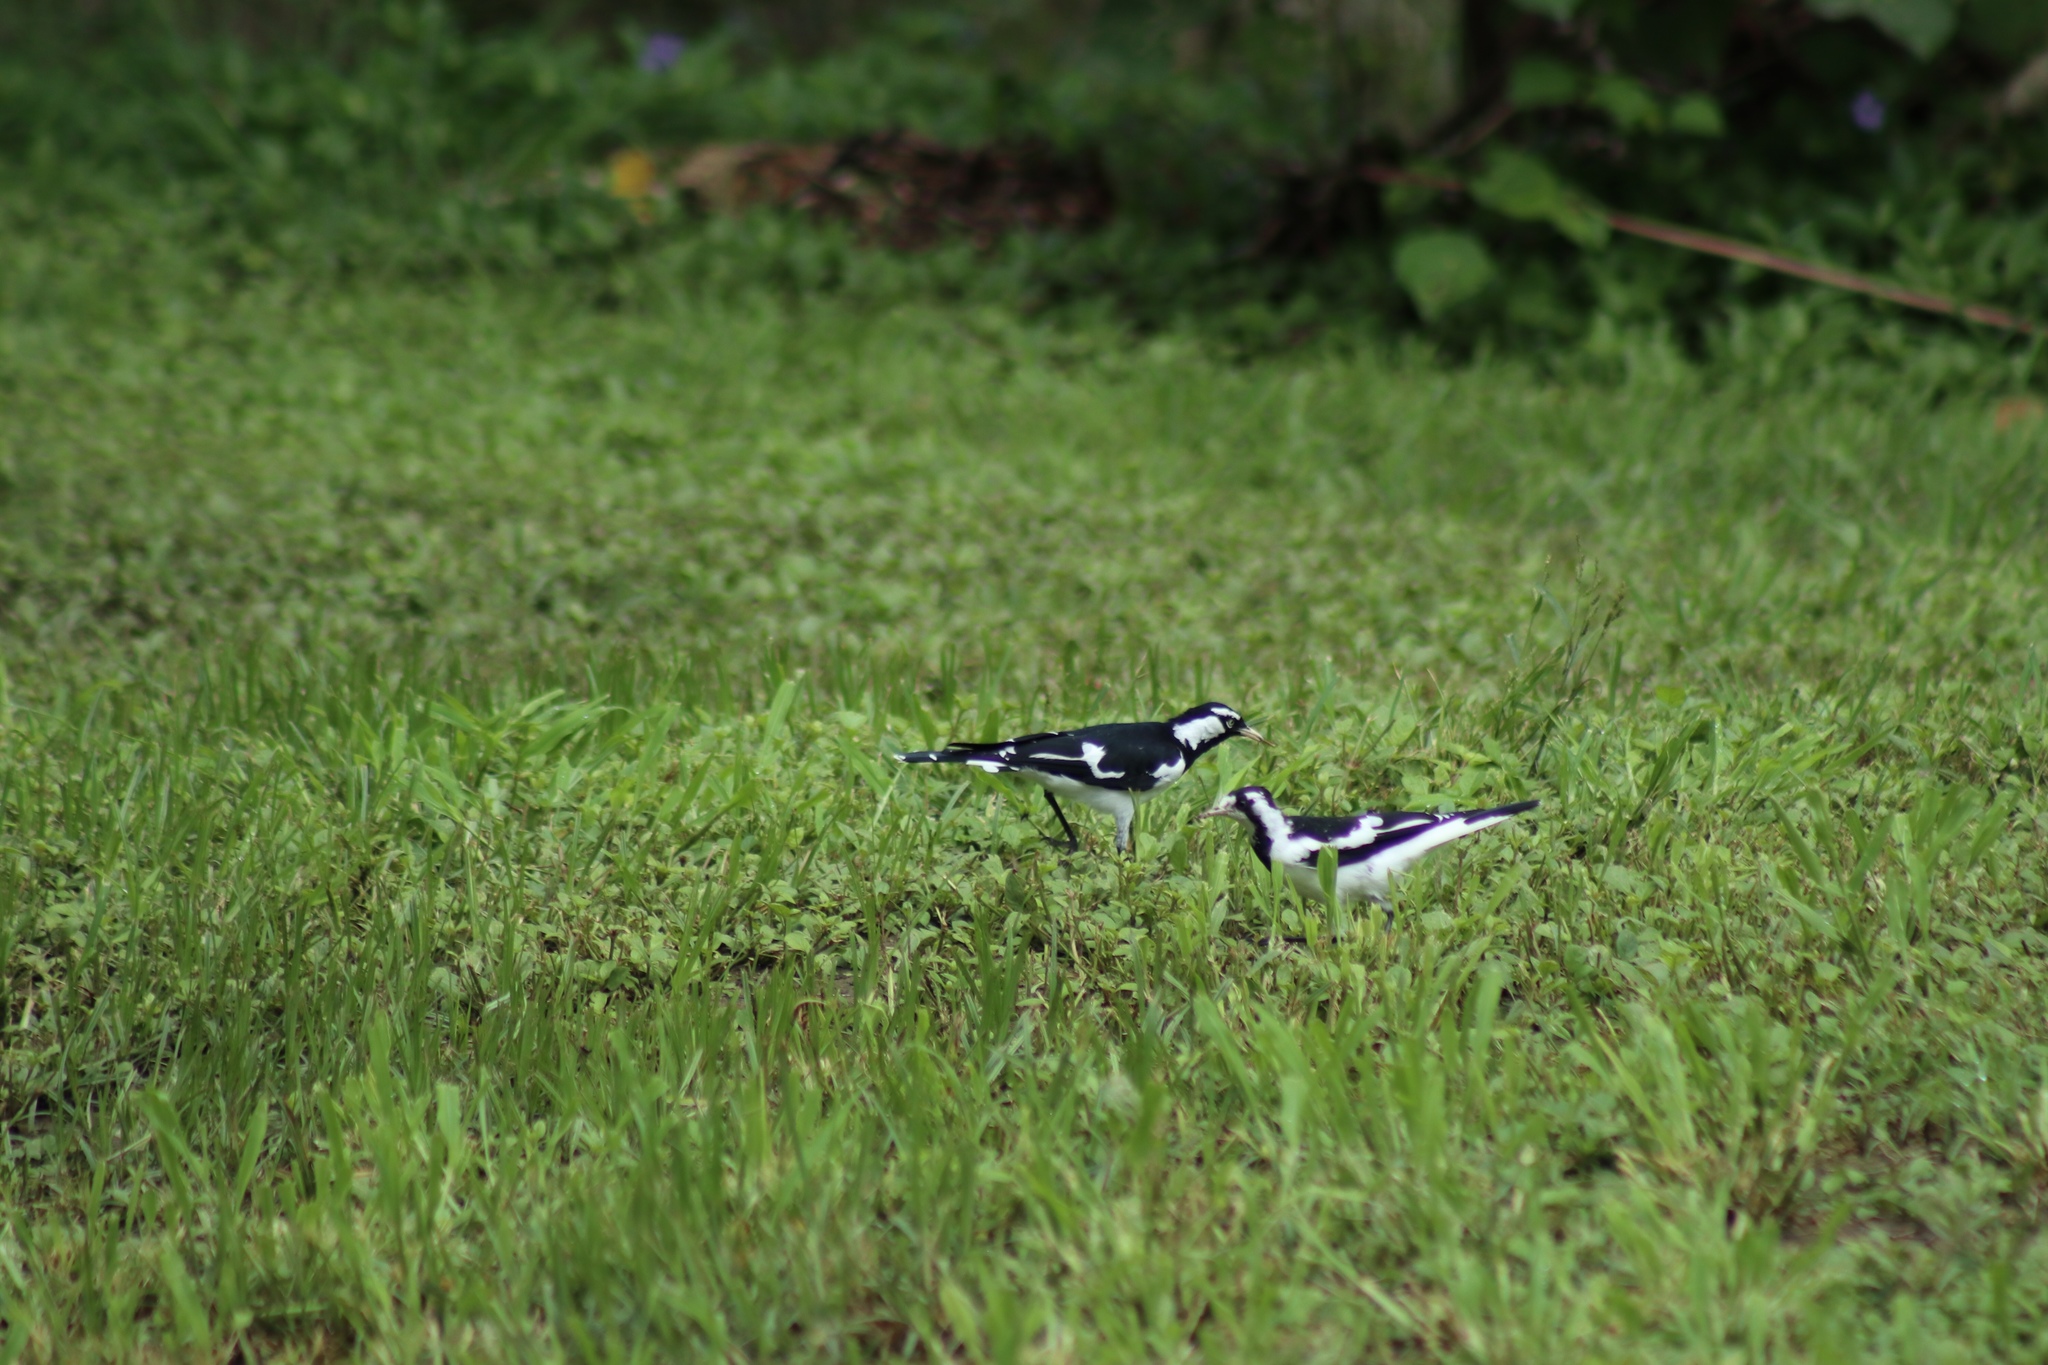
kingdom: Animalia
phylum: Chordata
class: Aves
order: Passeriformes
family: Monarchidae
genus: Grallina
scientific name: Grallina cyanoleuca
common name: Magpie-lark
